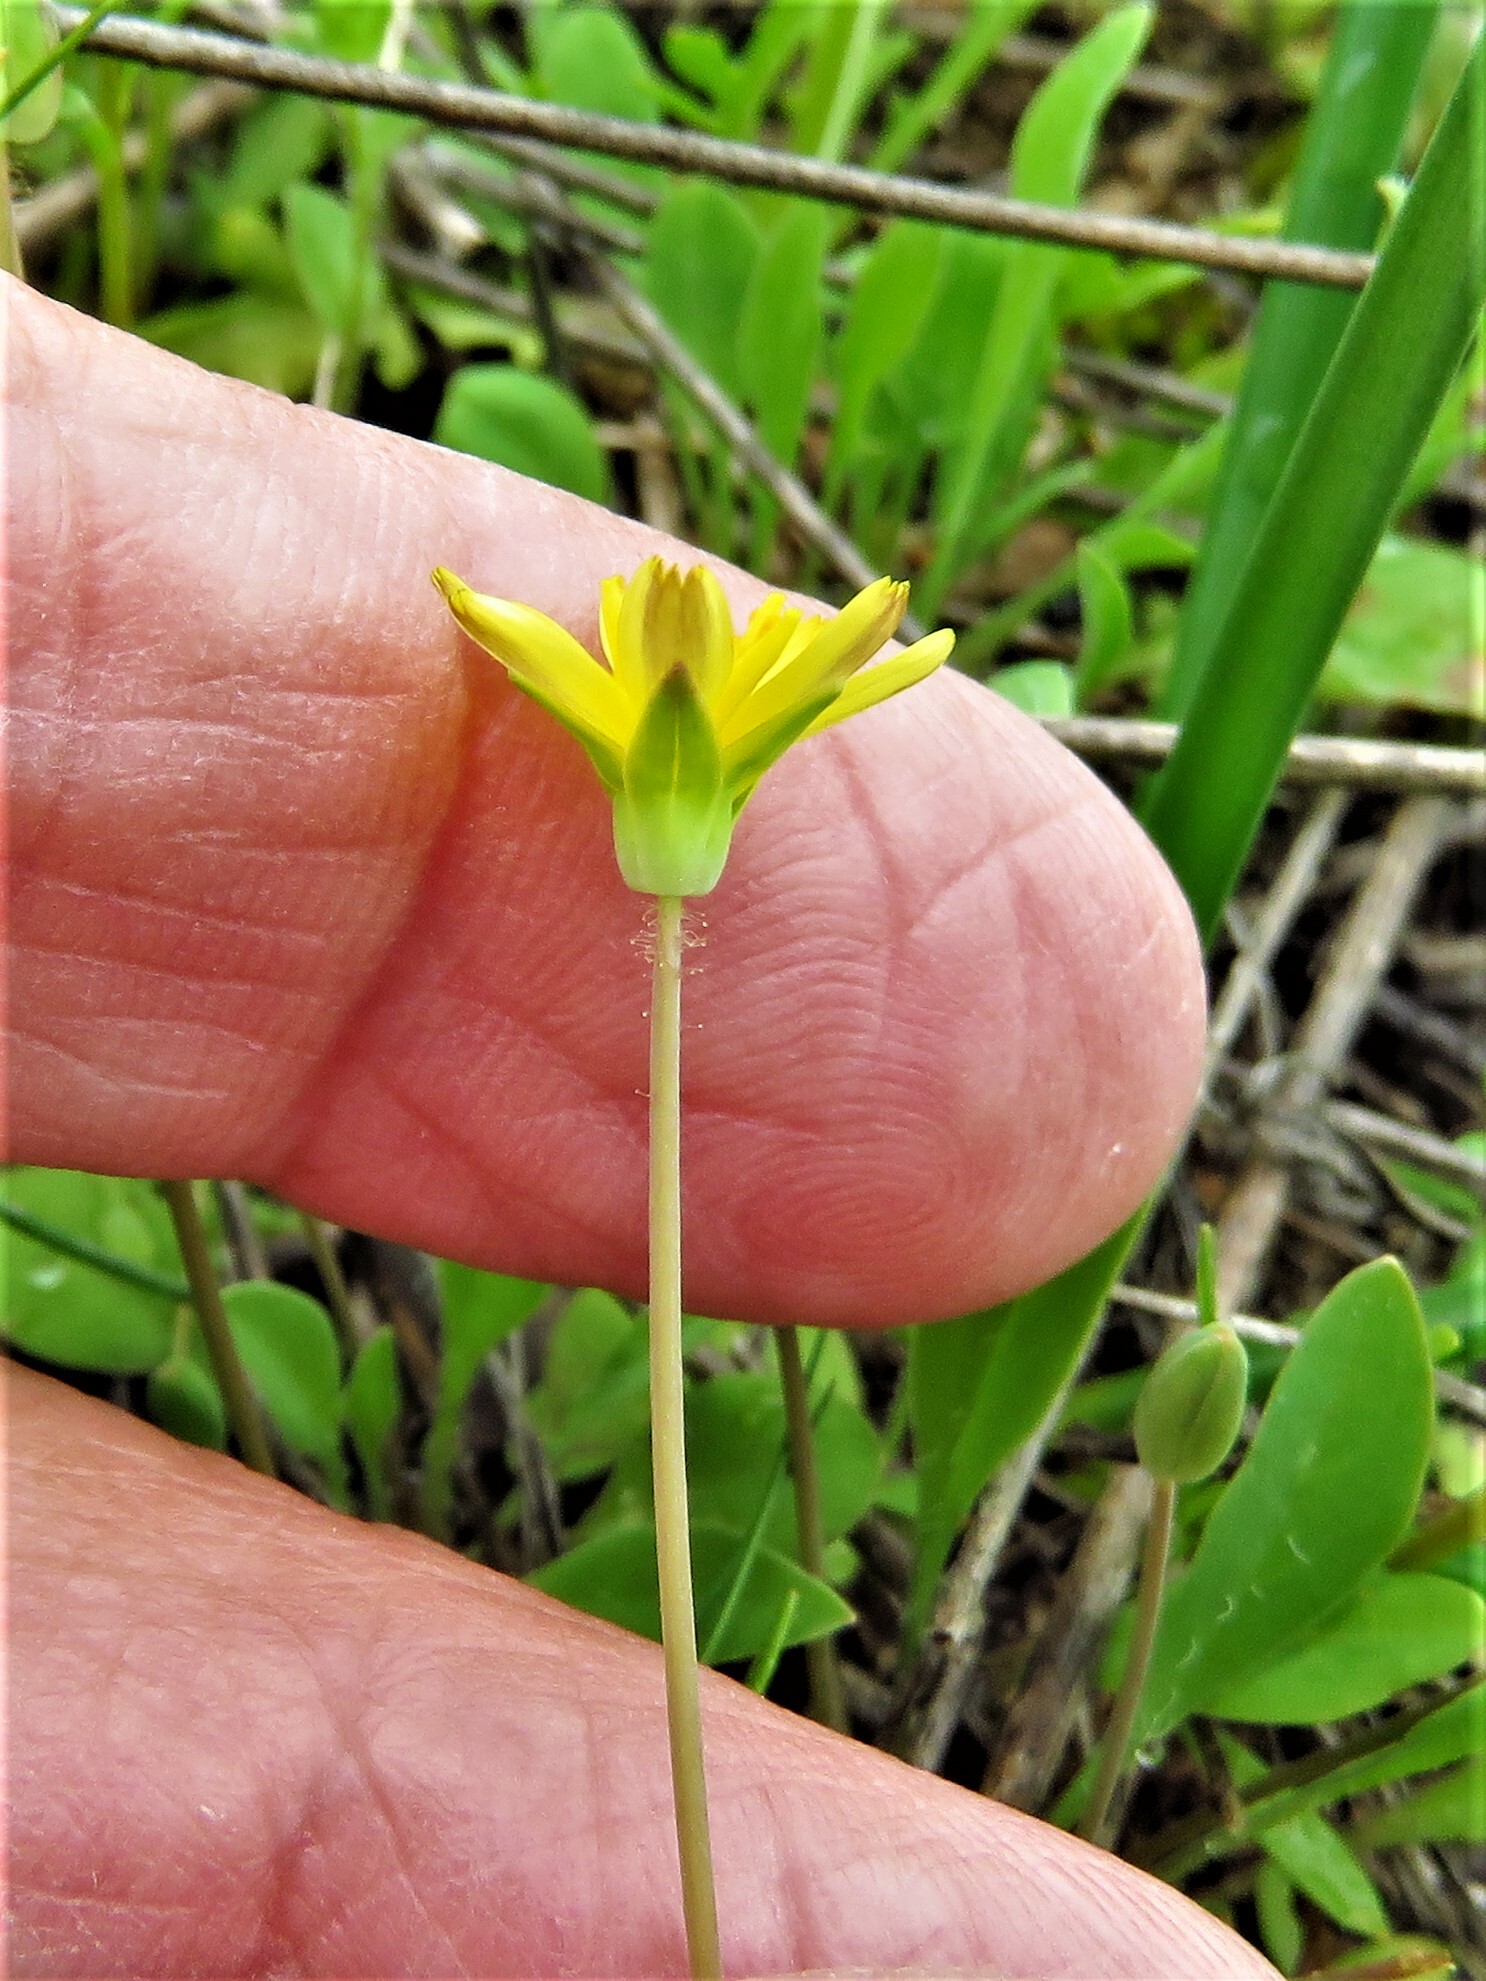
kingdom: Plantae
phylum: Tracheophyta
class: Magnoliopsida
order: Asterales
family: Asteraceae
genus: Krigia
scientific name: Krigia occidentalis
